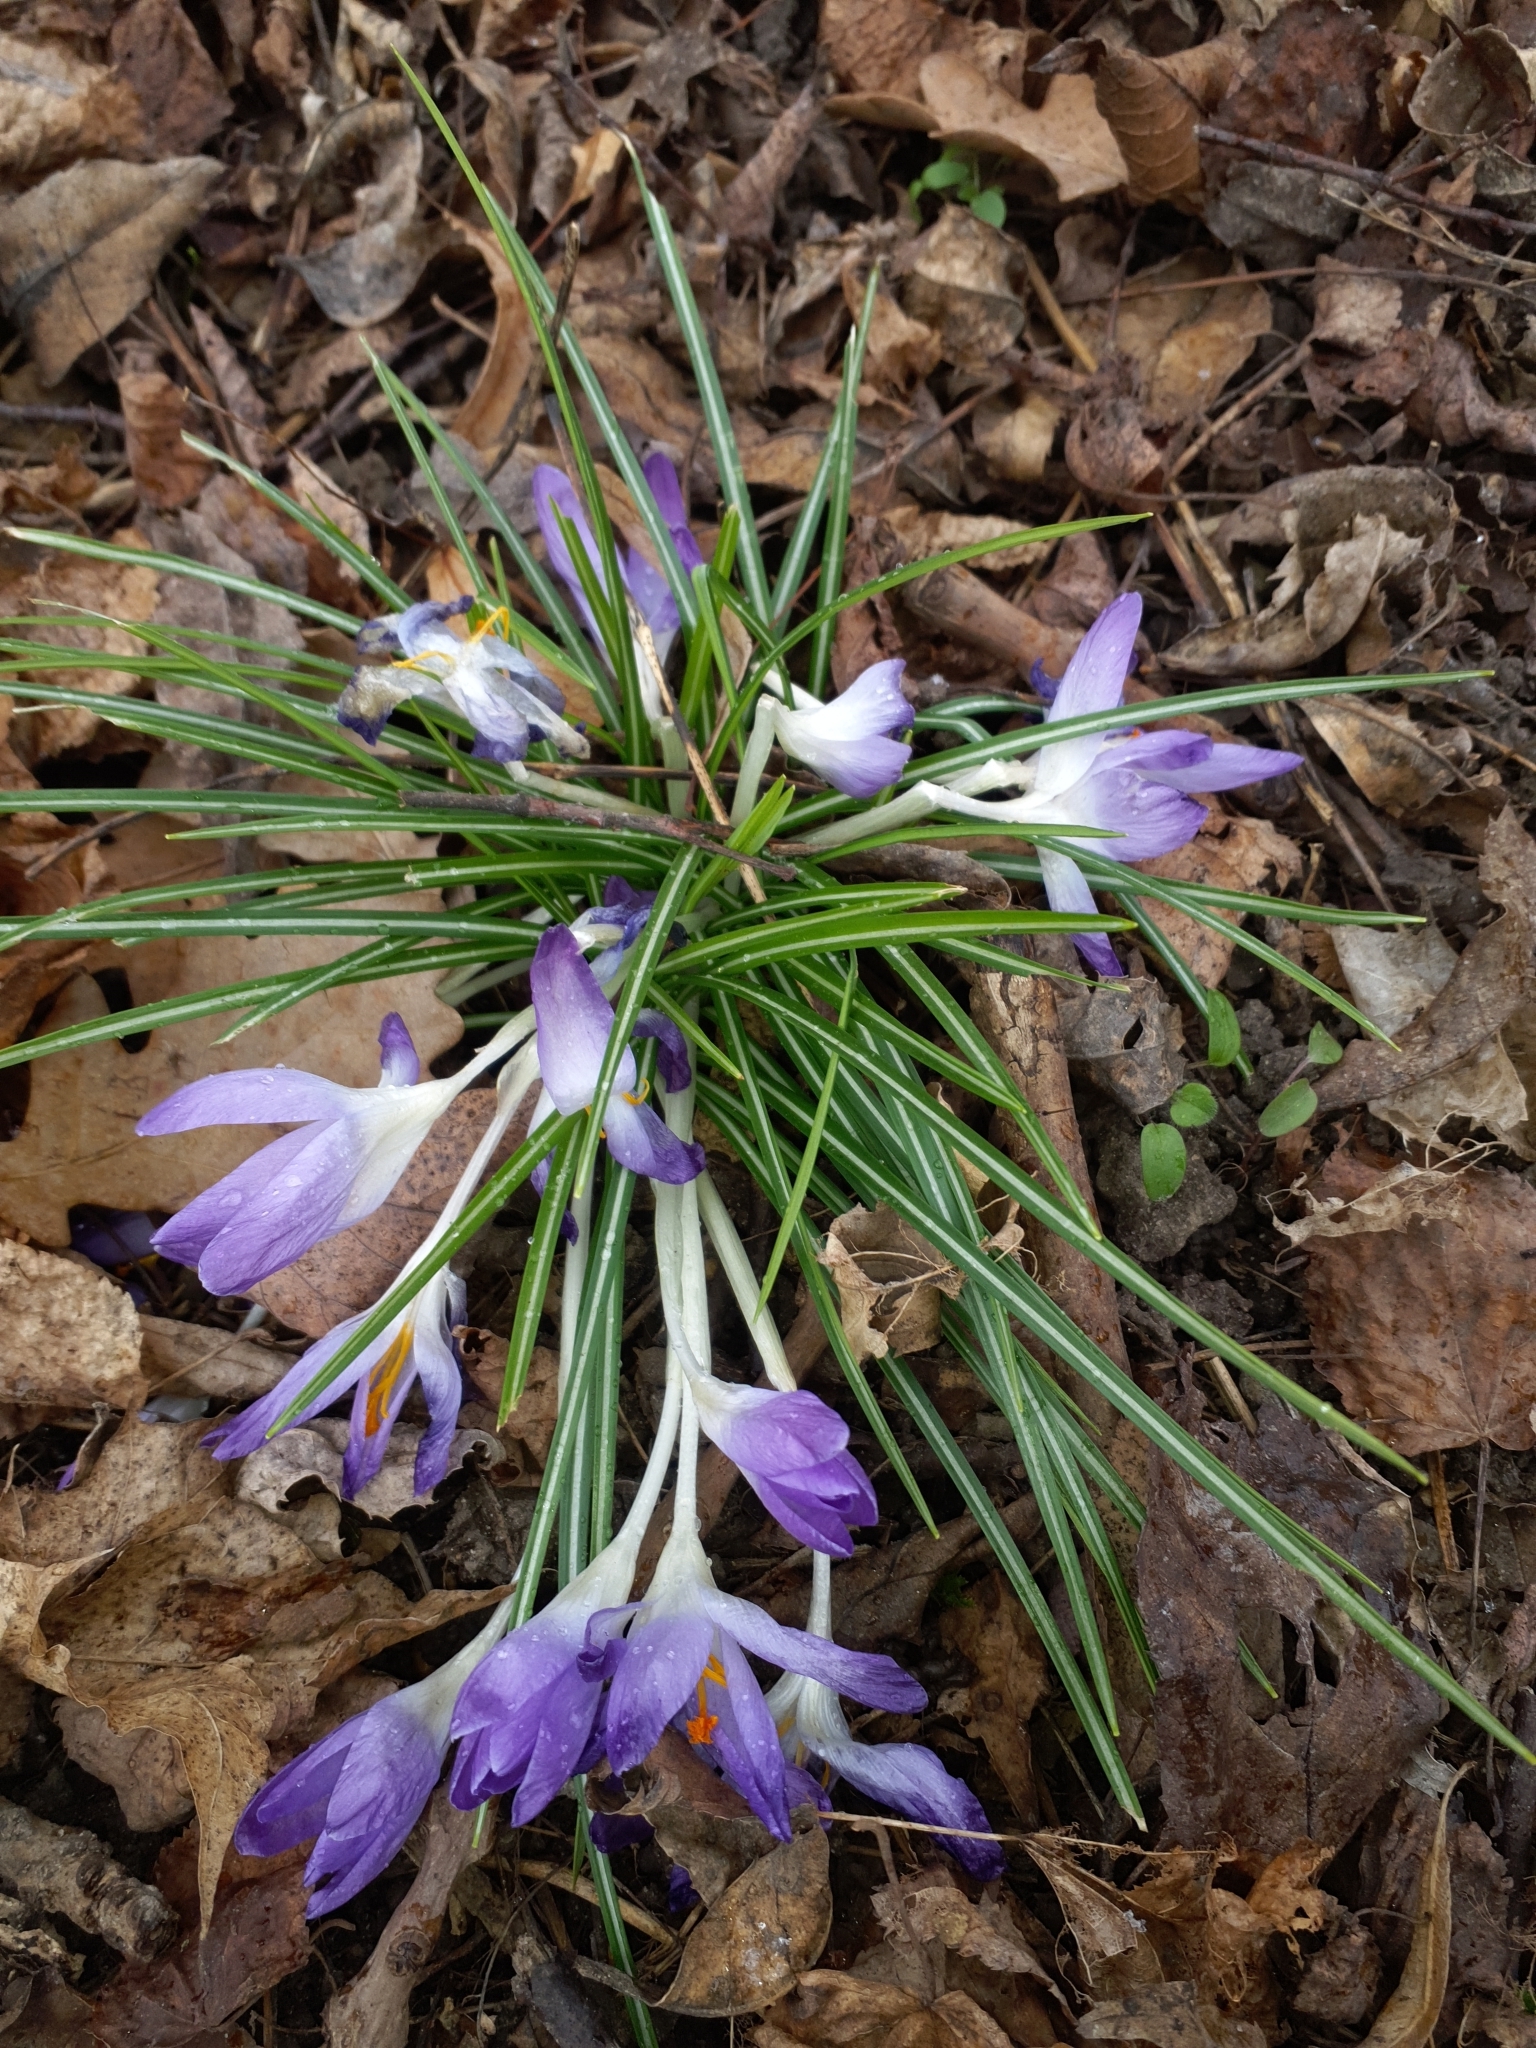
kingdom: Plantae
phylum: Tracheophyta
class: Liliopsida
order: Asparagales
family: Iridaceae
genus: Crocus
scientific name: Crocus tommasinianus
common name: Early crocus
